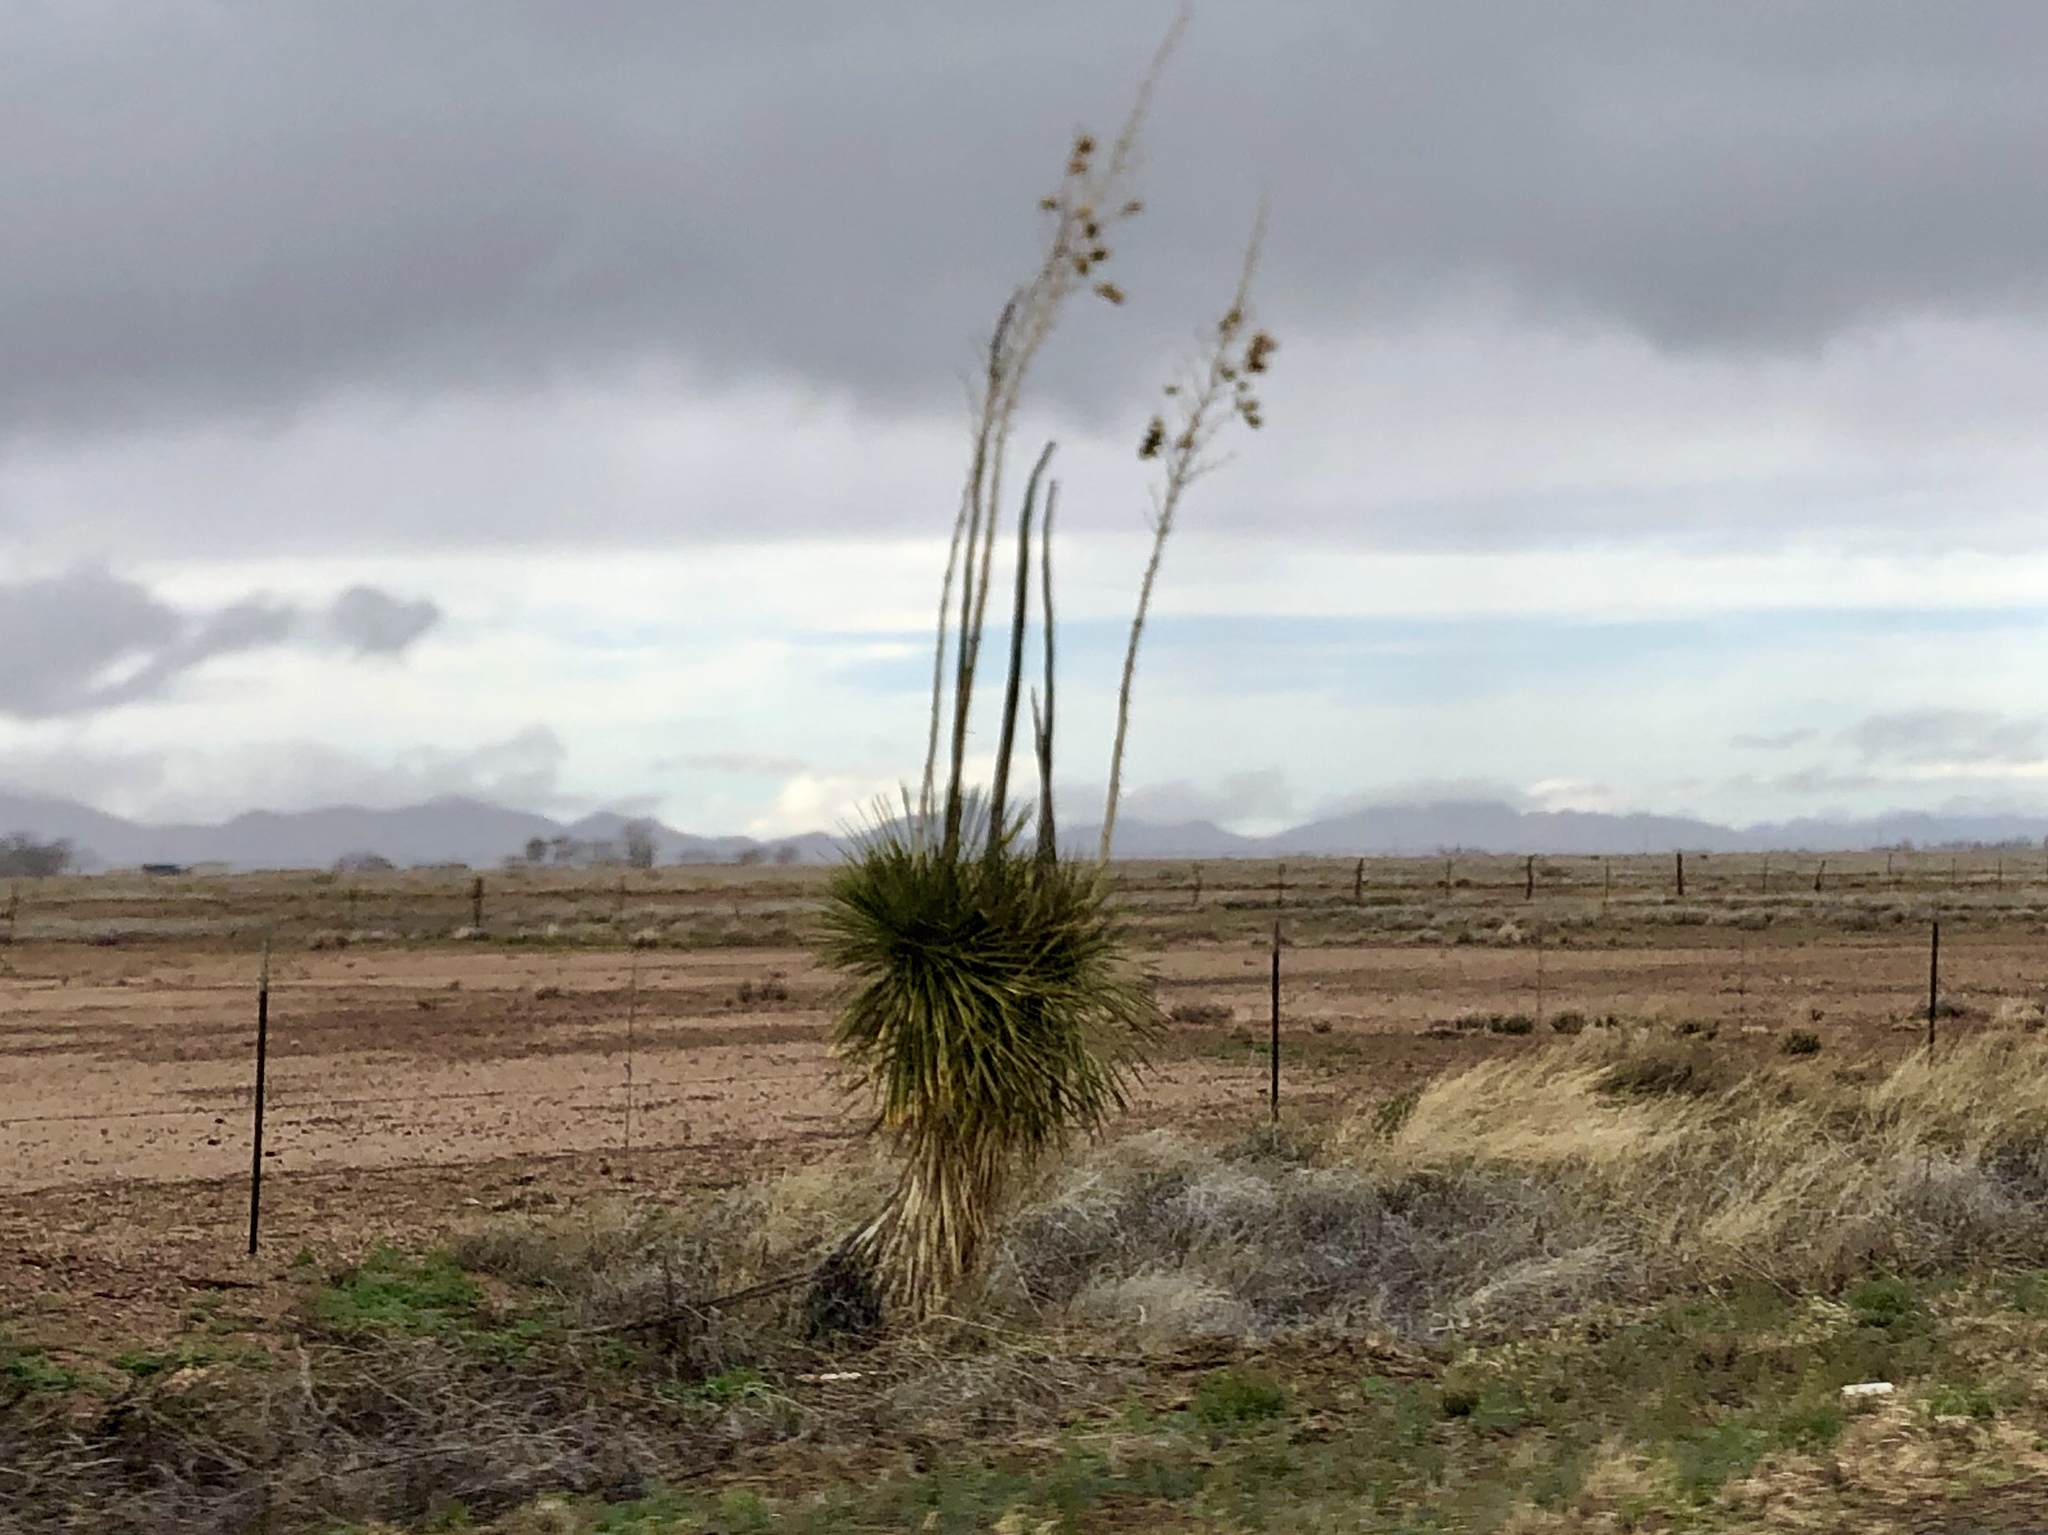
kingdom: Plantae
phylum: Tracheophyta
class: Liliopsida
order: Asparagales
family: Asparagaceae
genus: Yucca
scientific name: Yucca elata
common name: Palmella
